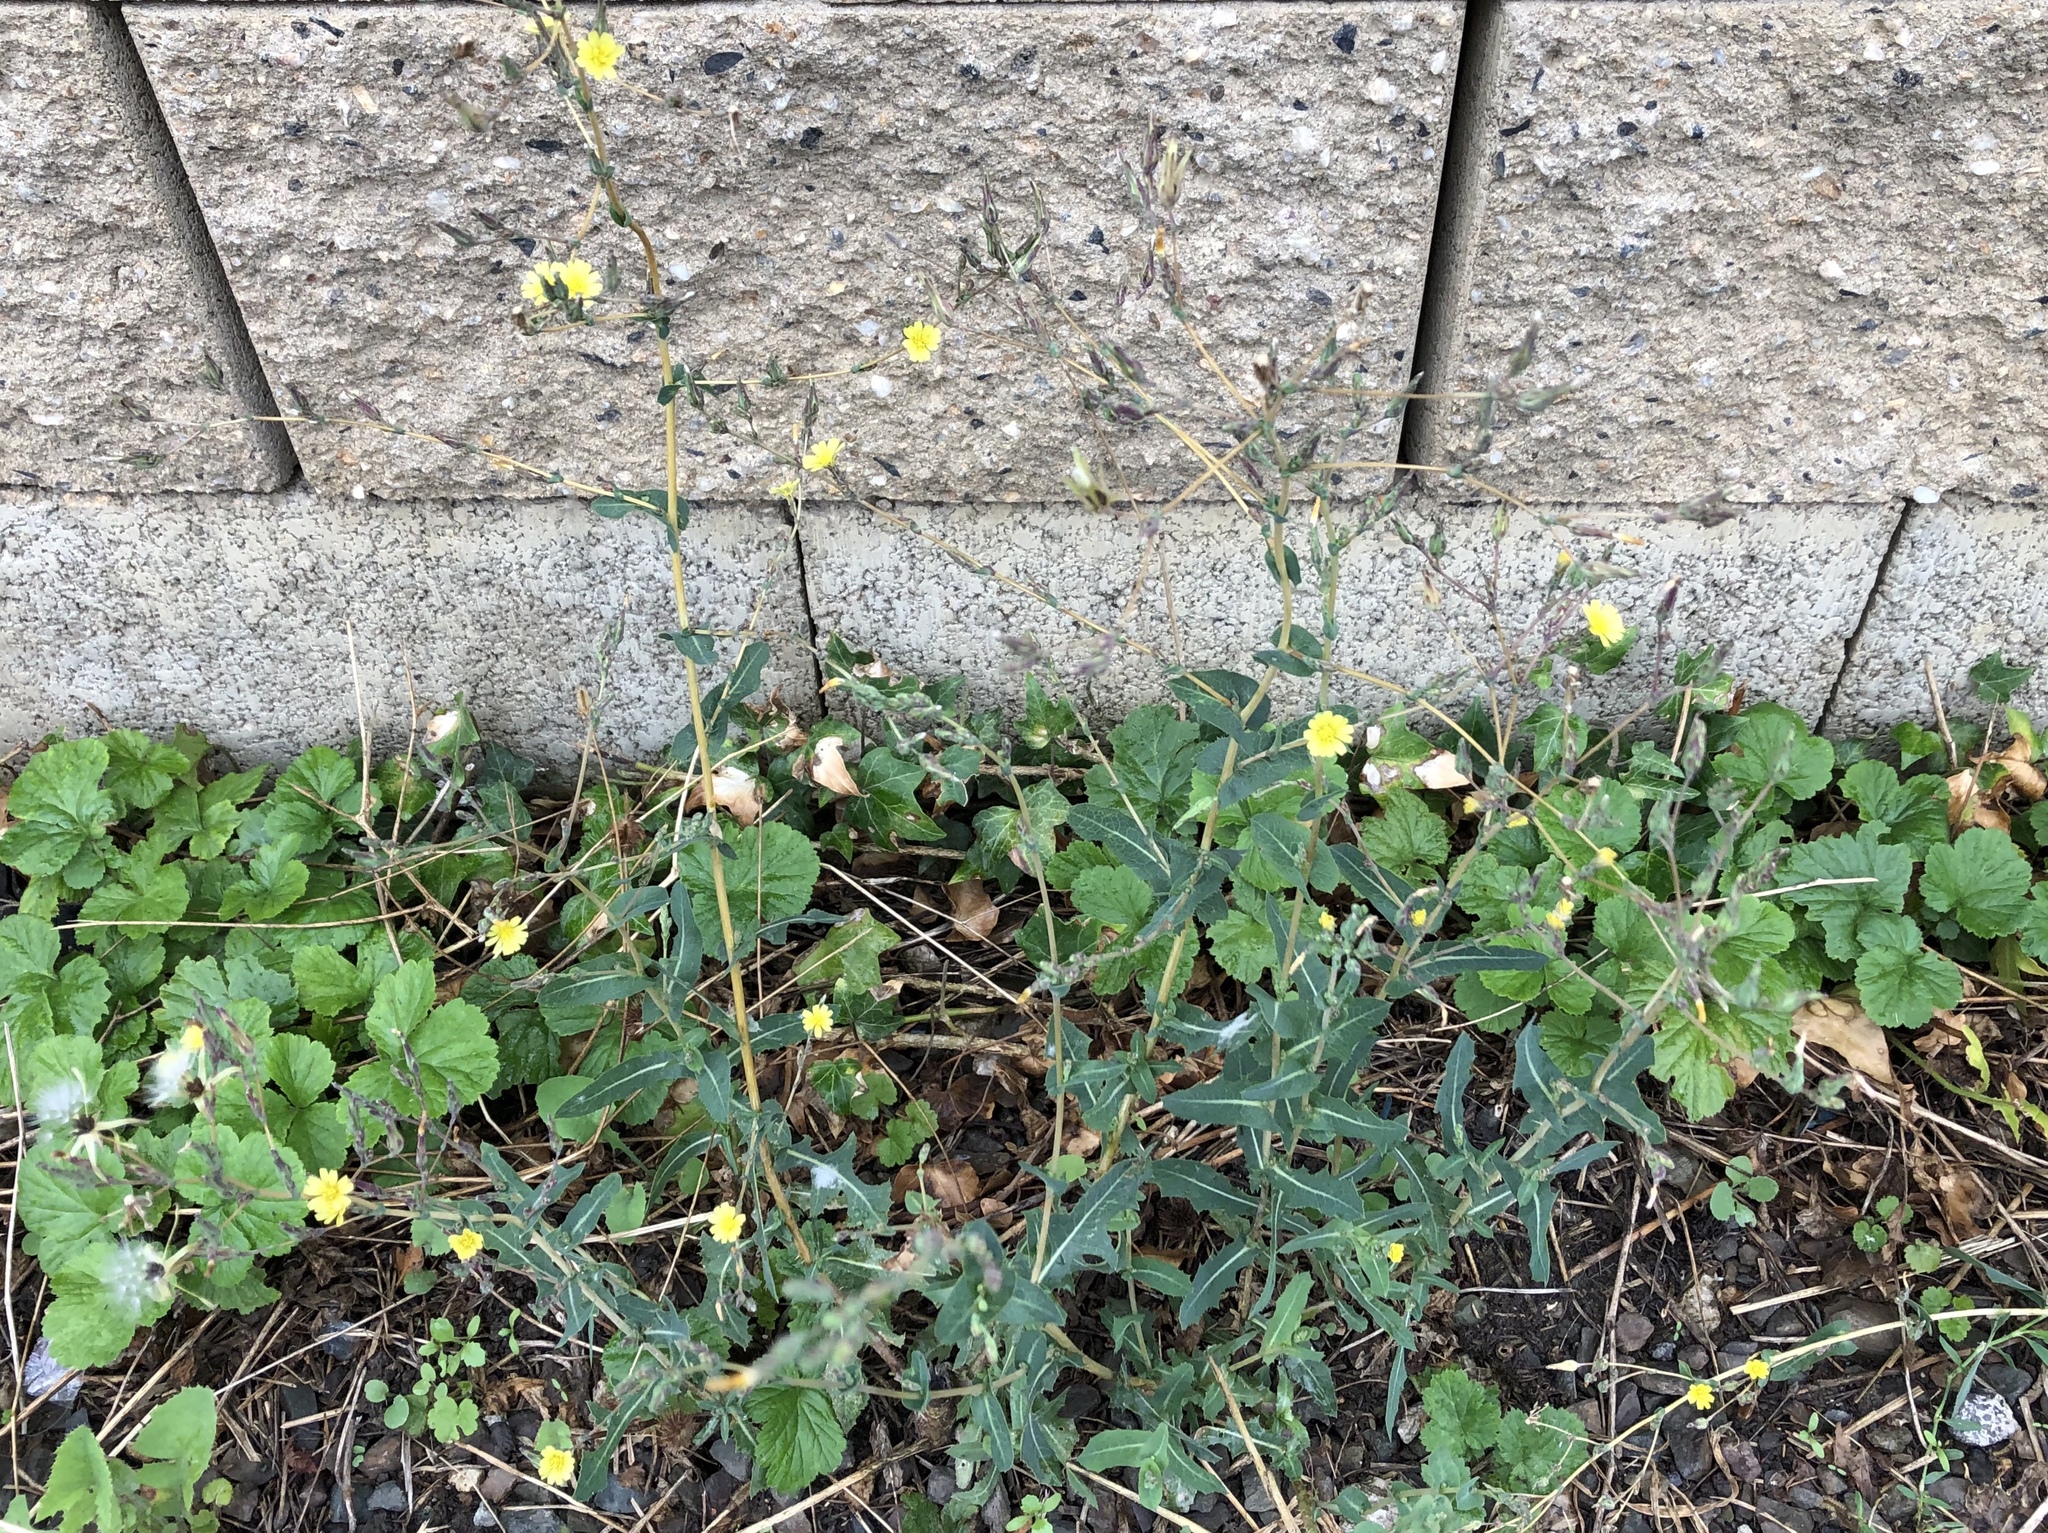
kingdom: Plantae
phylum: Tracheophyta
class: Magnoliopsida
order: Asterales
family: Asteraceae
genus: Lactuca
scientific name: Lactuca serriola
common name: Prickly lettuce
